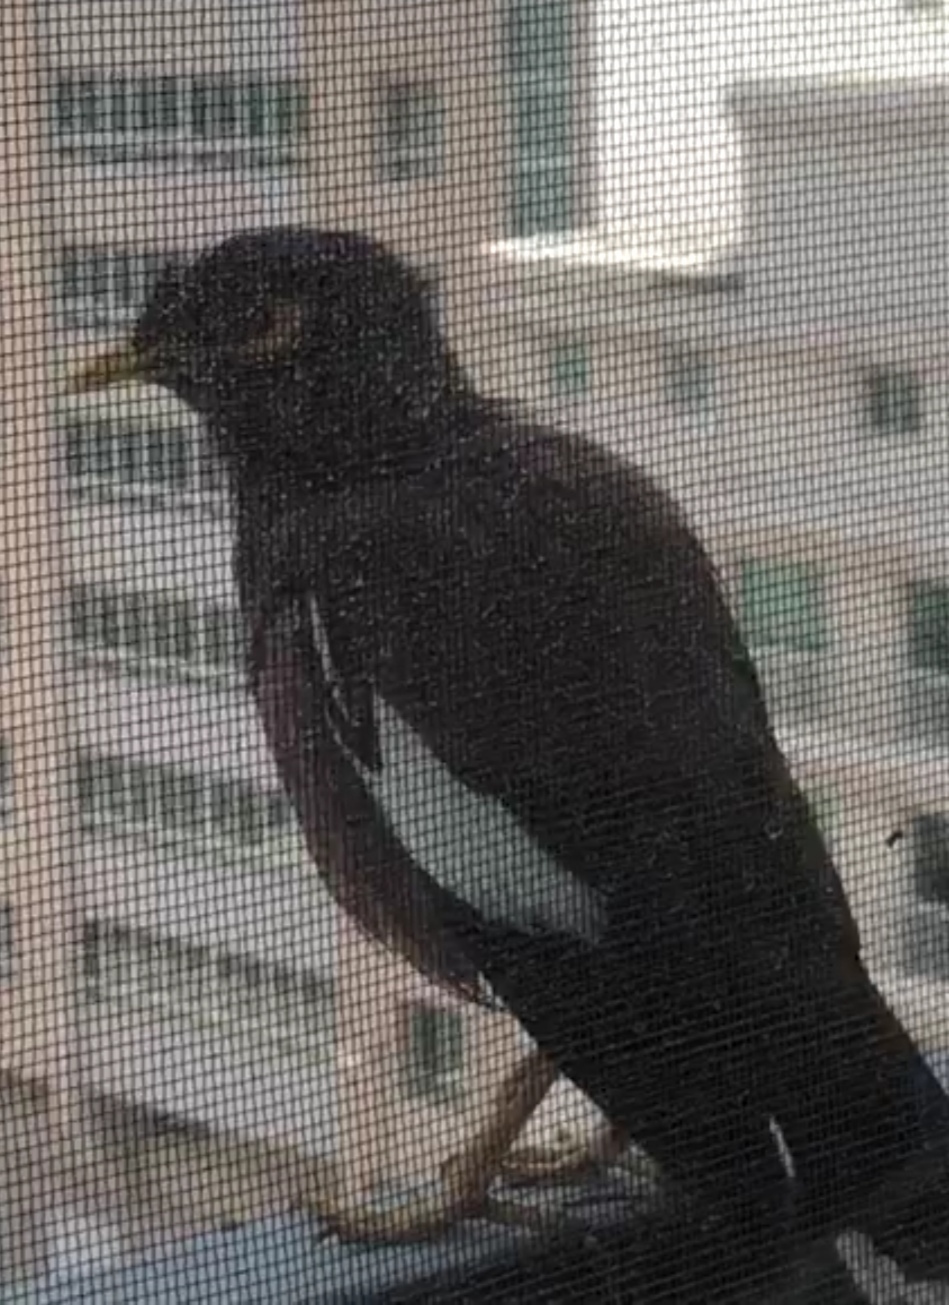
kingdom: Animalia
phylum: Chordata
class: Aves
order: Passeriformes
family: Sturnidae
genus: Acridotheres
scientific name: Acridotheres tristis
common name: Common myna
